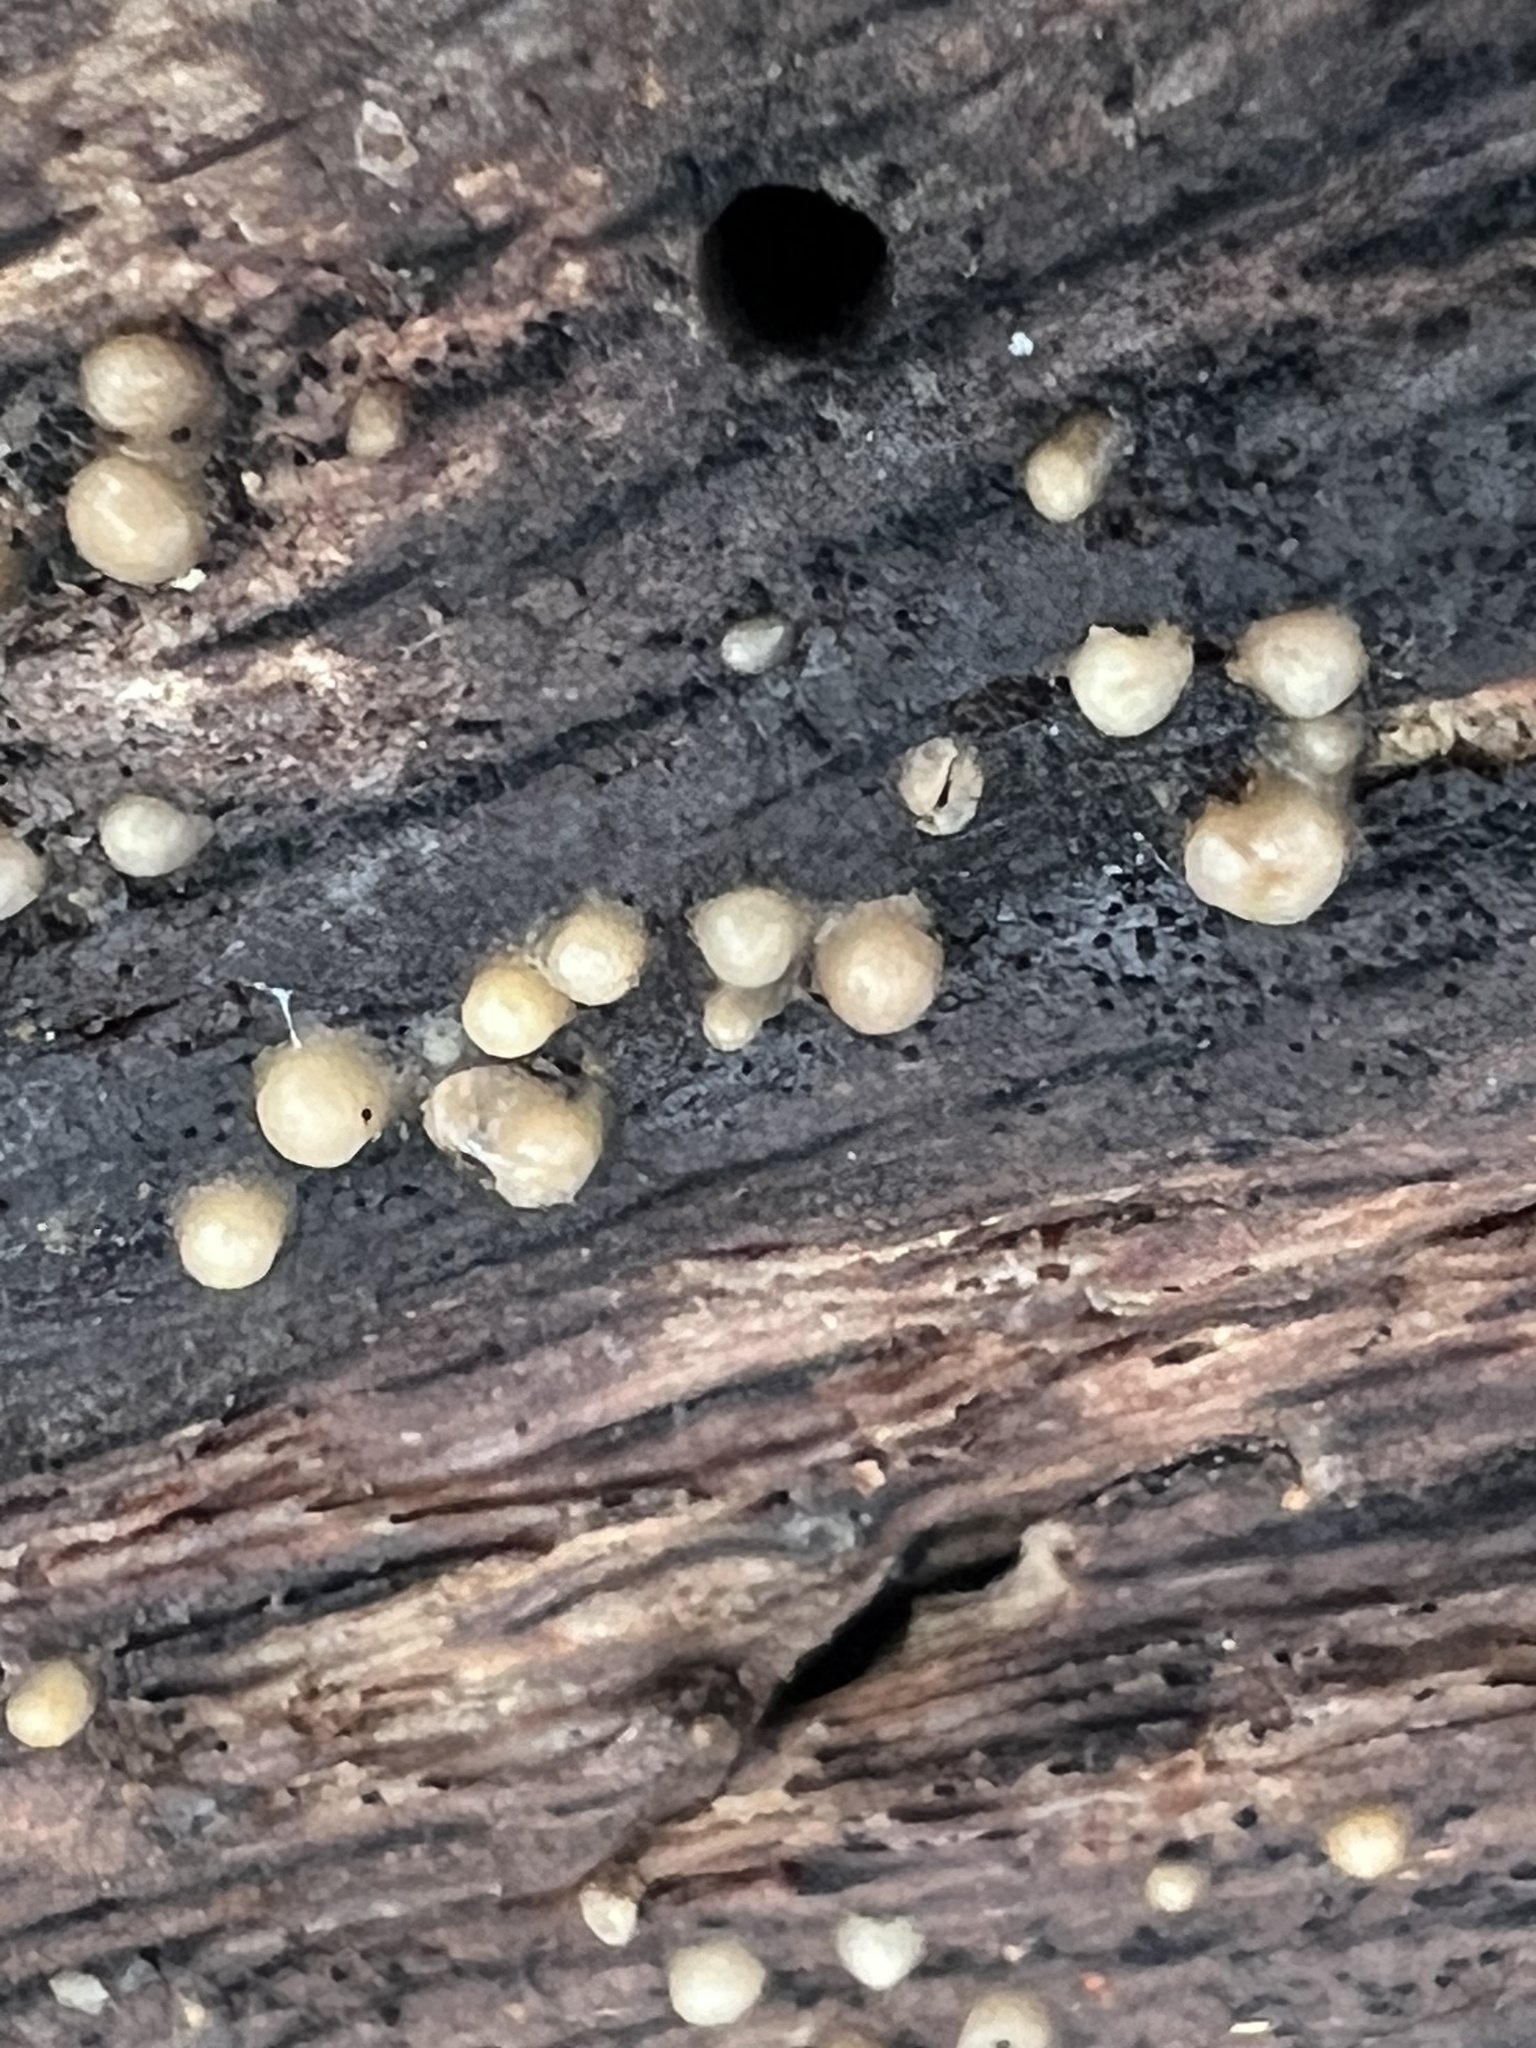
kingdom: Fungi
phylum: Basidiomycota
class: Atractiellomycetes
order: Atractiellales
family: Phleogenaceae
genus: Helicogloea
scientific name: Helicogloea compressa
